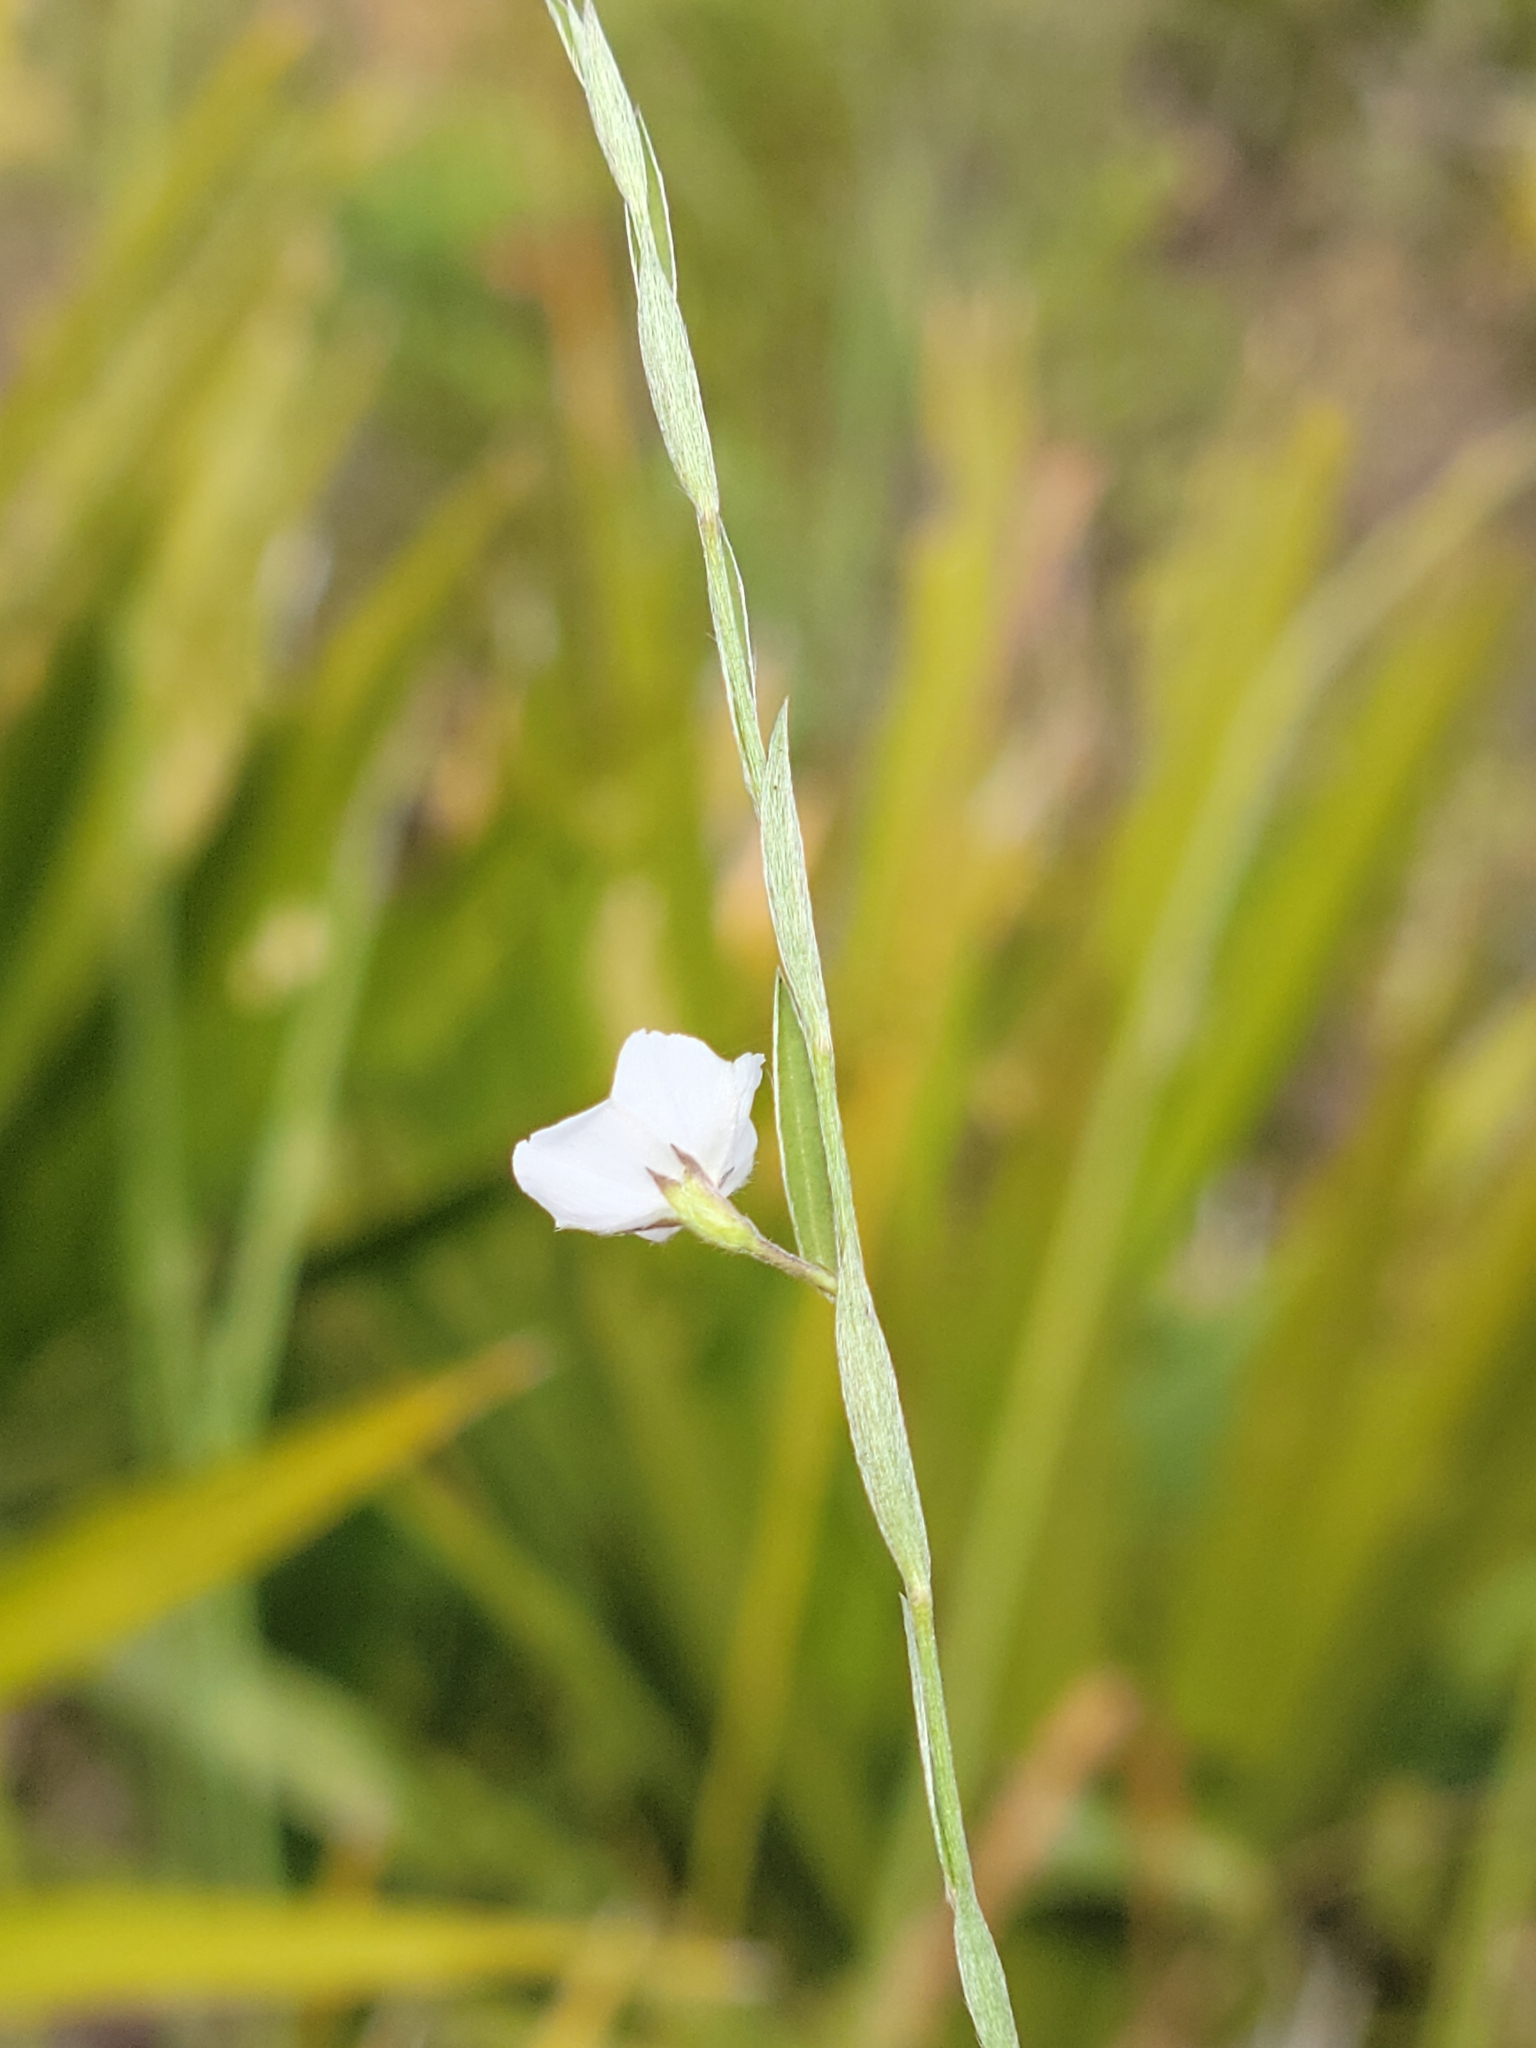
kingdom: Plantae
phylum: Tracheophyta
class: Magnoliopsida
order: Solanales
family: Convolvulaceae
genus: Evolvulus
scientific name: Evolvulus sericeus
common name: Blue dots
